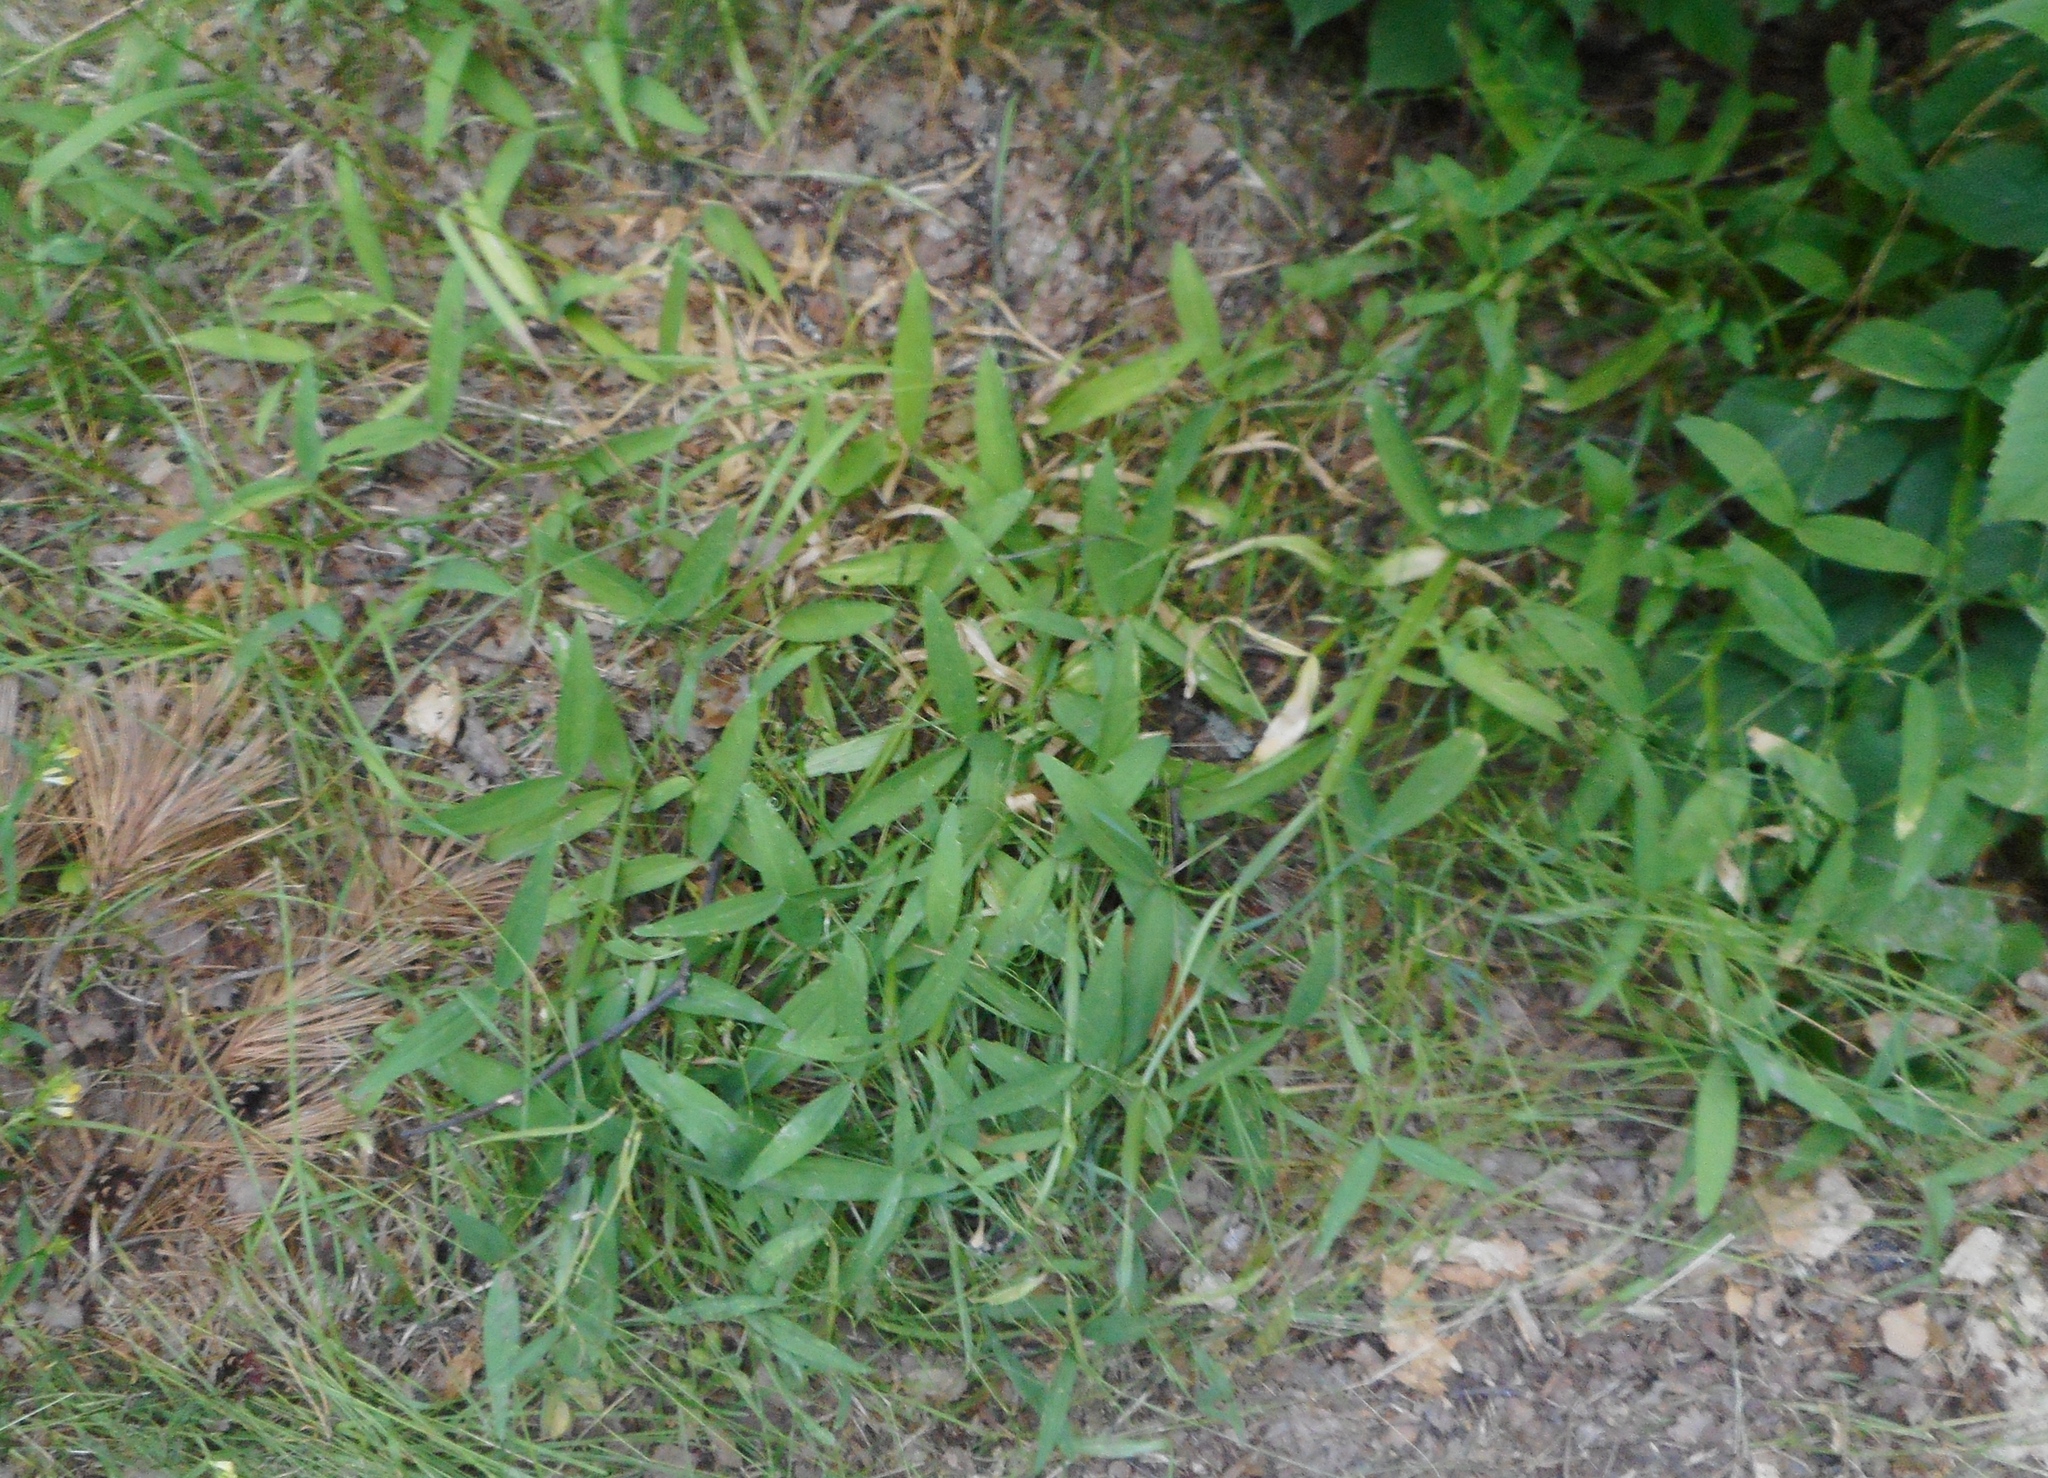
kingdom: Plantae
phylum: Tracheophyta
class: Magnoliopsida
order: Fabales
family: Fabaceae
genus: Lathyrus
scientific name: Lathyrus sylvestris
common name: Flat pea
